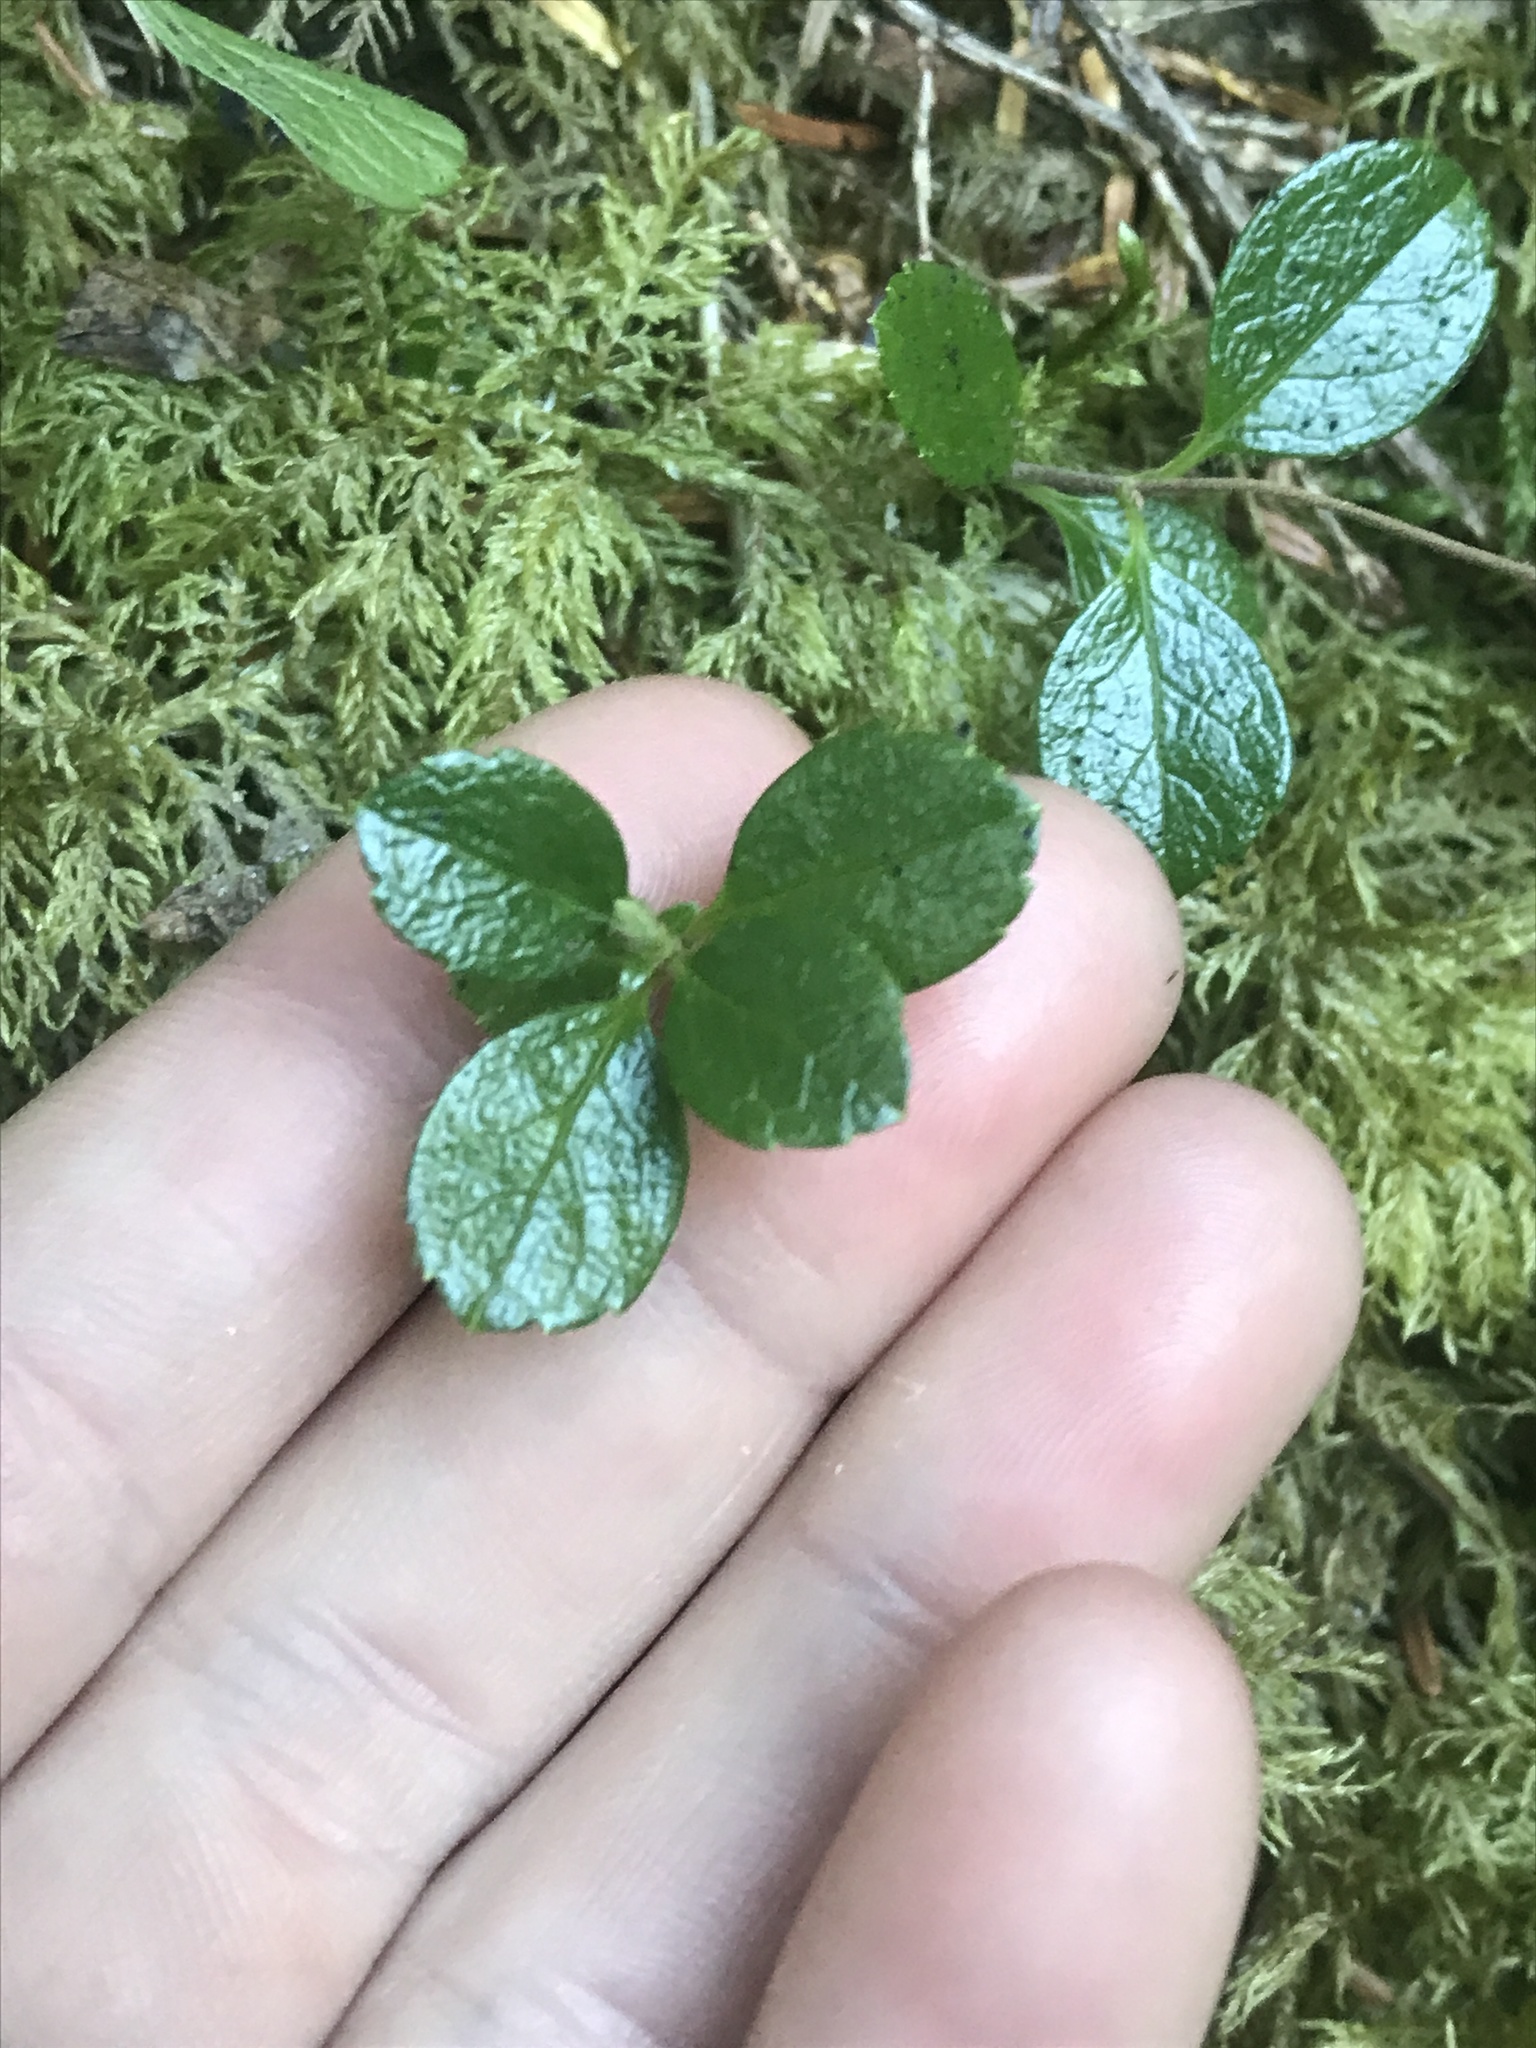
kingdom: Plantae
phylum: Tracheophyta
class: Magnoliopsida
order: Dipsacales
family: Caprifoliaceae
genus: Linnaea
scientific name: Linnaea borealis
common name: Twinflower
